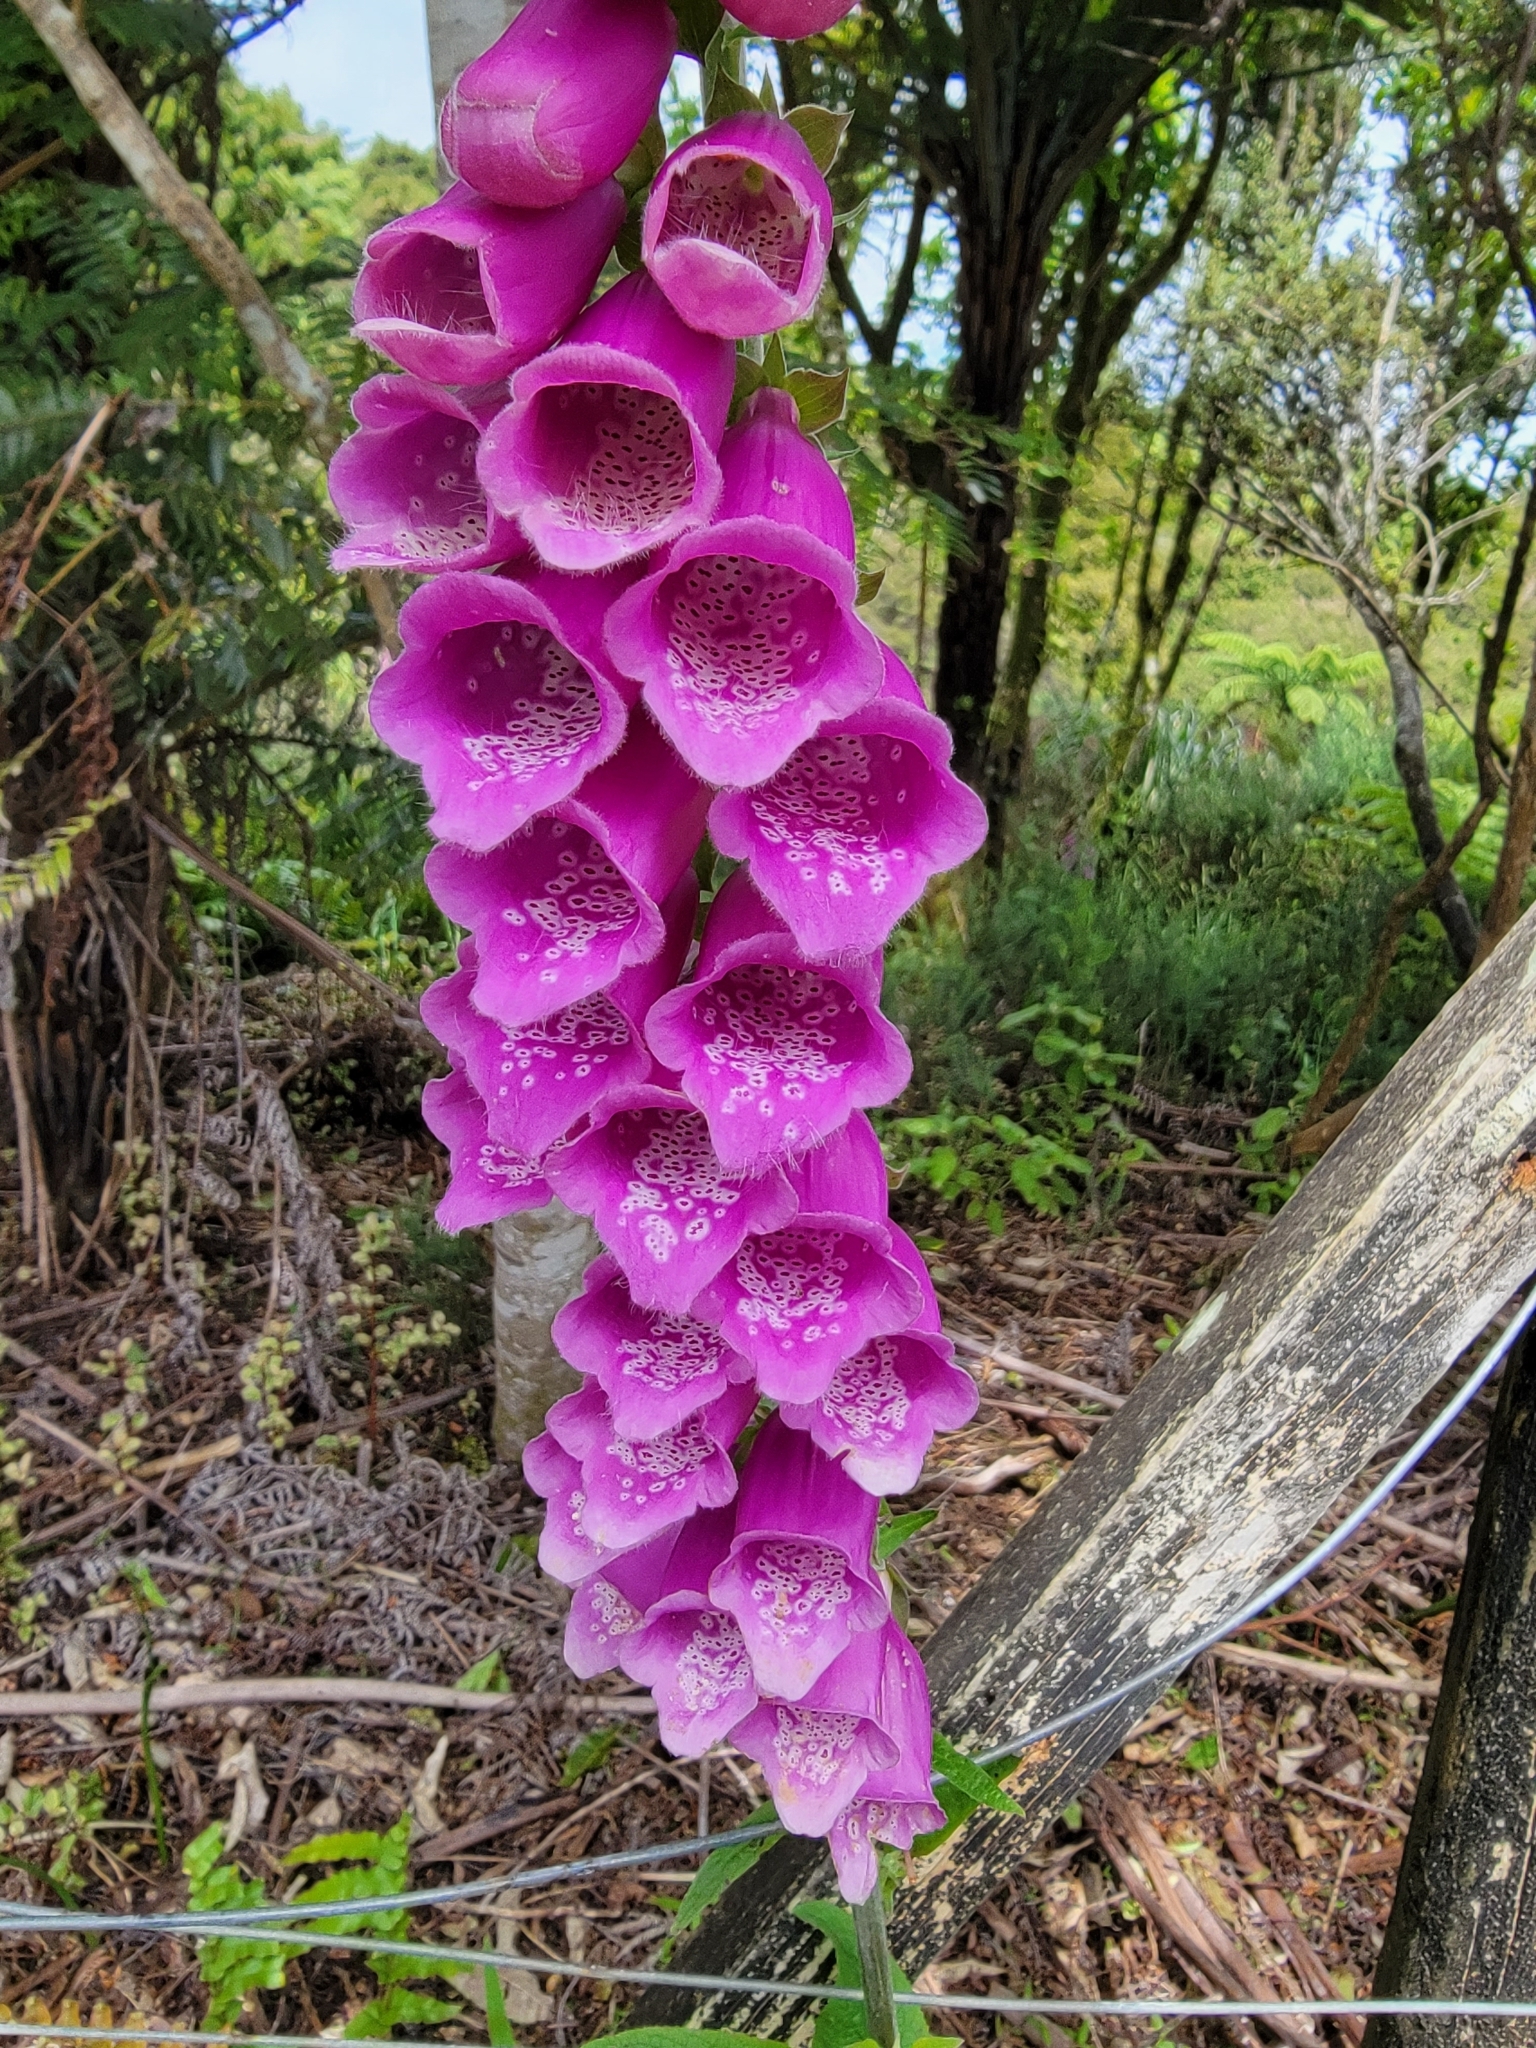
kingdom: Plantae
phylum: Tracheophyta
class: Magnoliopsida
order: Lamiales
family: Plantaginaceae
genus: Digitalis
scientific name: Digitalis purpurea
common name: Foxglove
